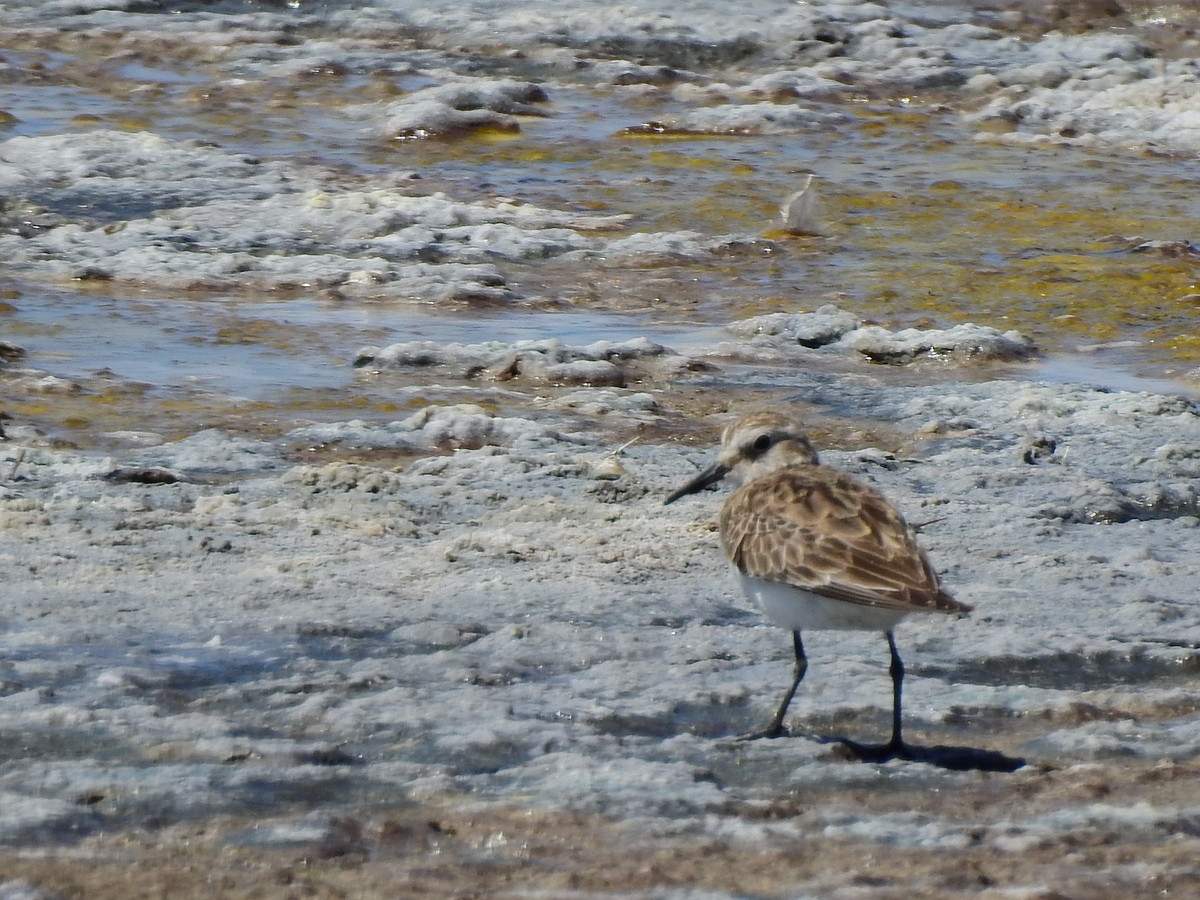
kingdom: Animalia
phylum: Chordata
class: Aves
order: Charadriiformes
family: Scolopacidae
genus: Calidris
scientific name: Calidris bairdii
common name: Baird's sandpiper
